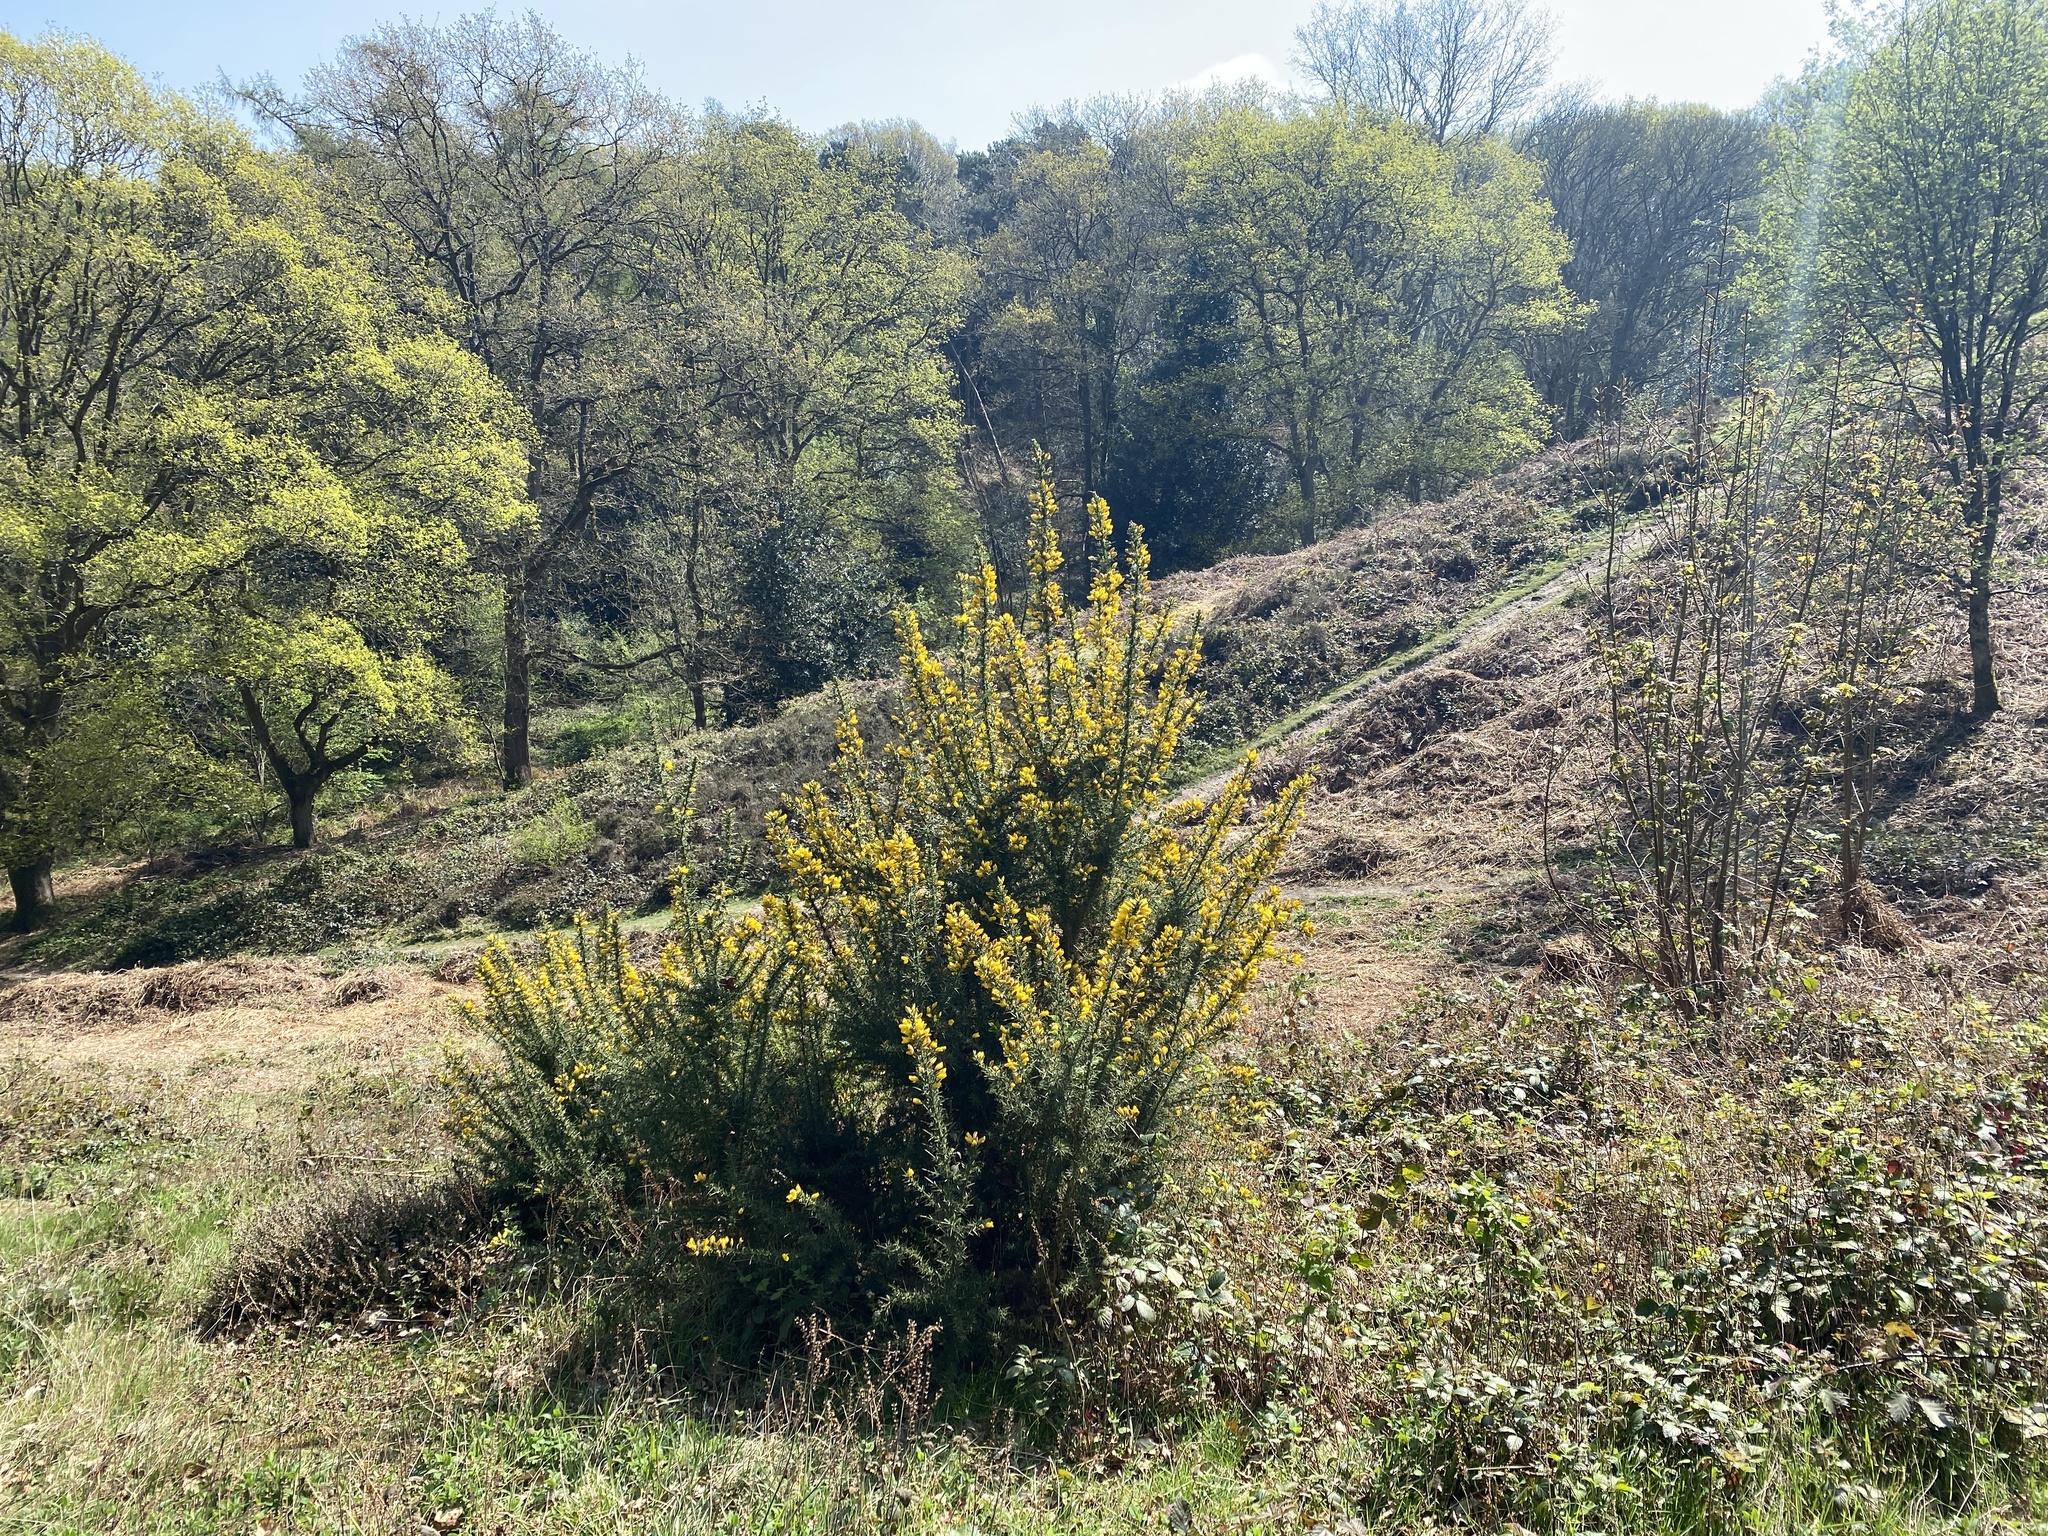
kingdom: Plantae
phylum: Tracheophyta
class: Magnoliopsida
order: Fabales
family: Fabaceae
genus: Ulex
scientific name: Ulex europaeus
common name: Common gorse
